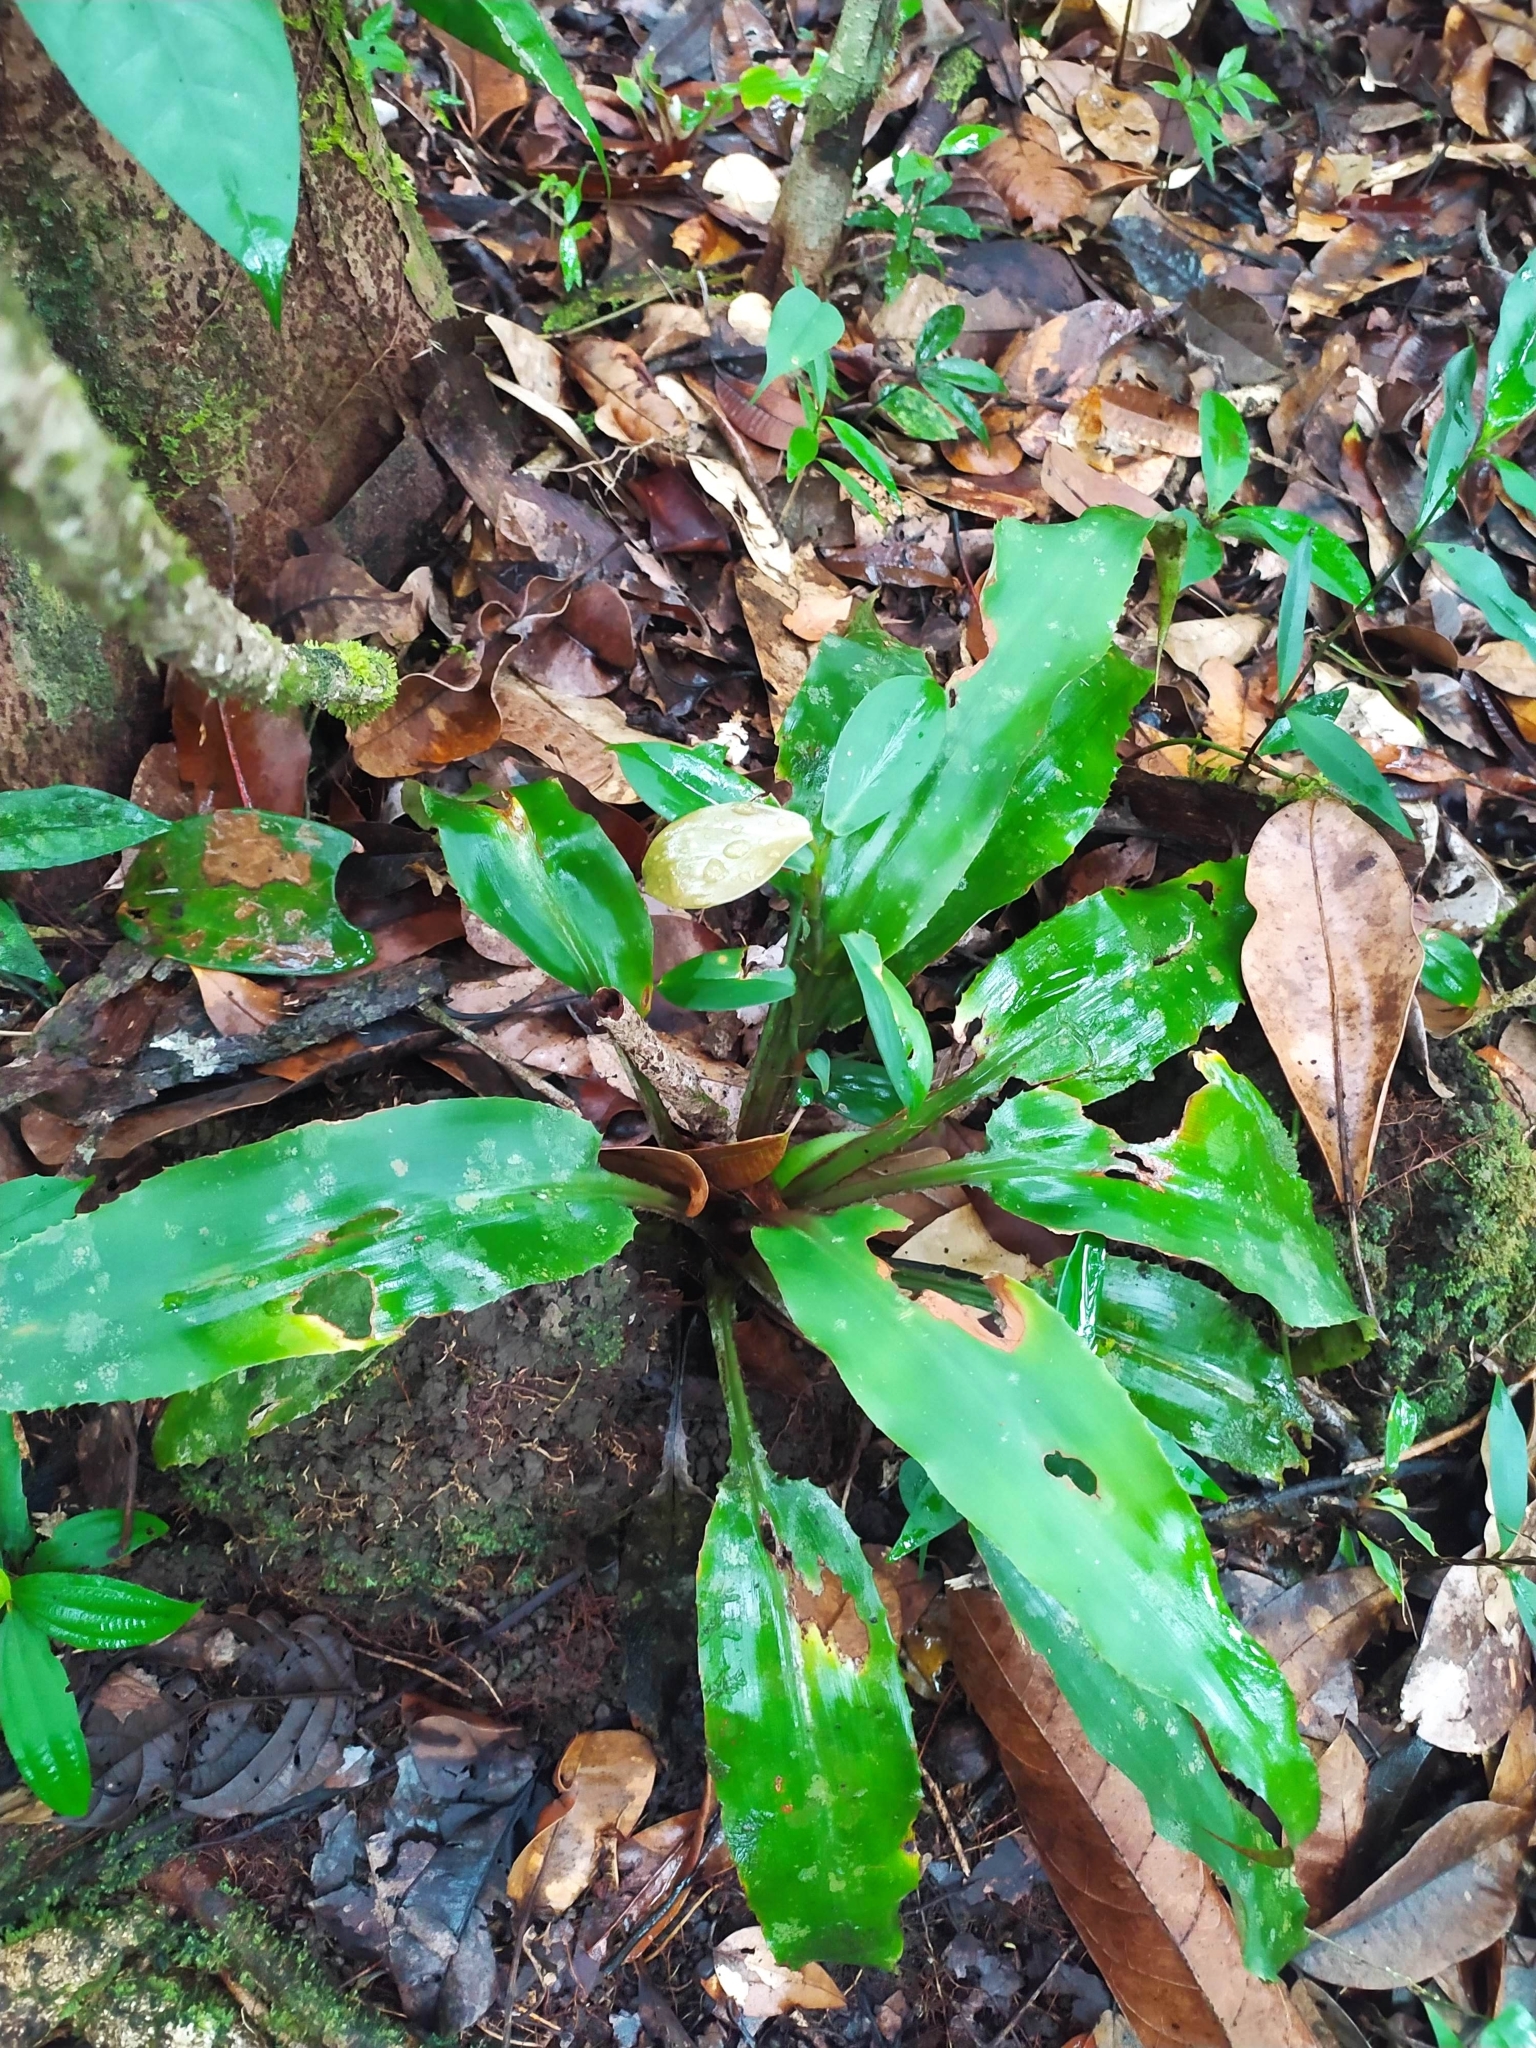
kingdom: Plantae
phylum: Tracheophyta
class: Liliopsida
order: Poales
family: Bromeliaceae
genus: Disteganthus
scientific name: Disteganthus basilateralis
